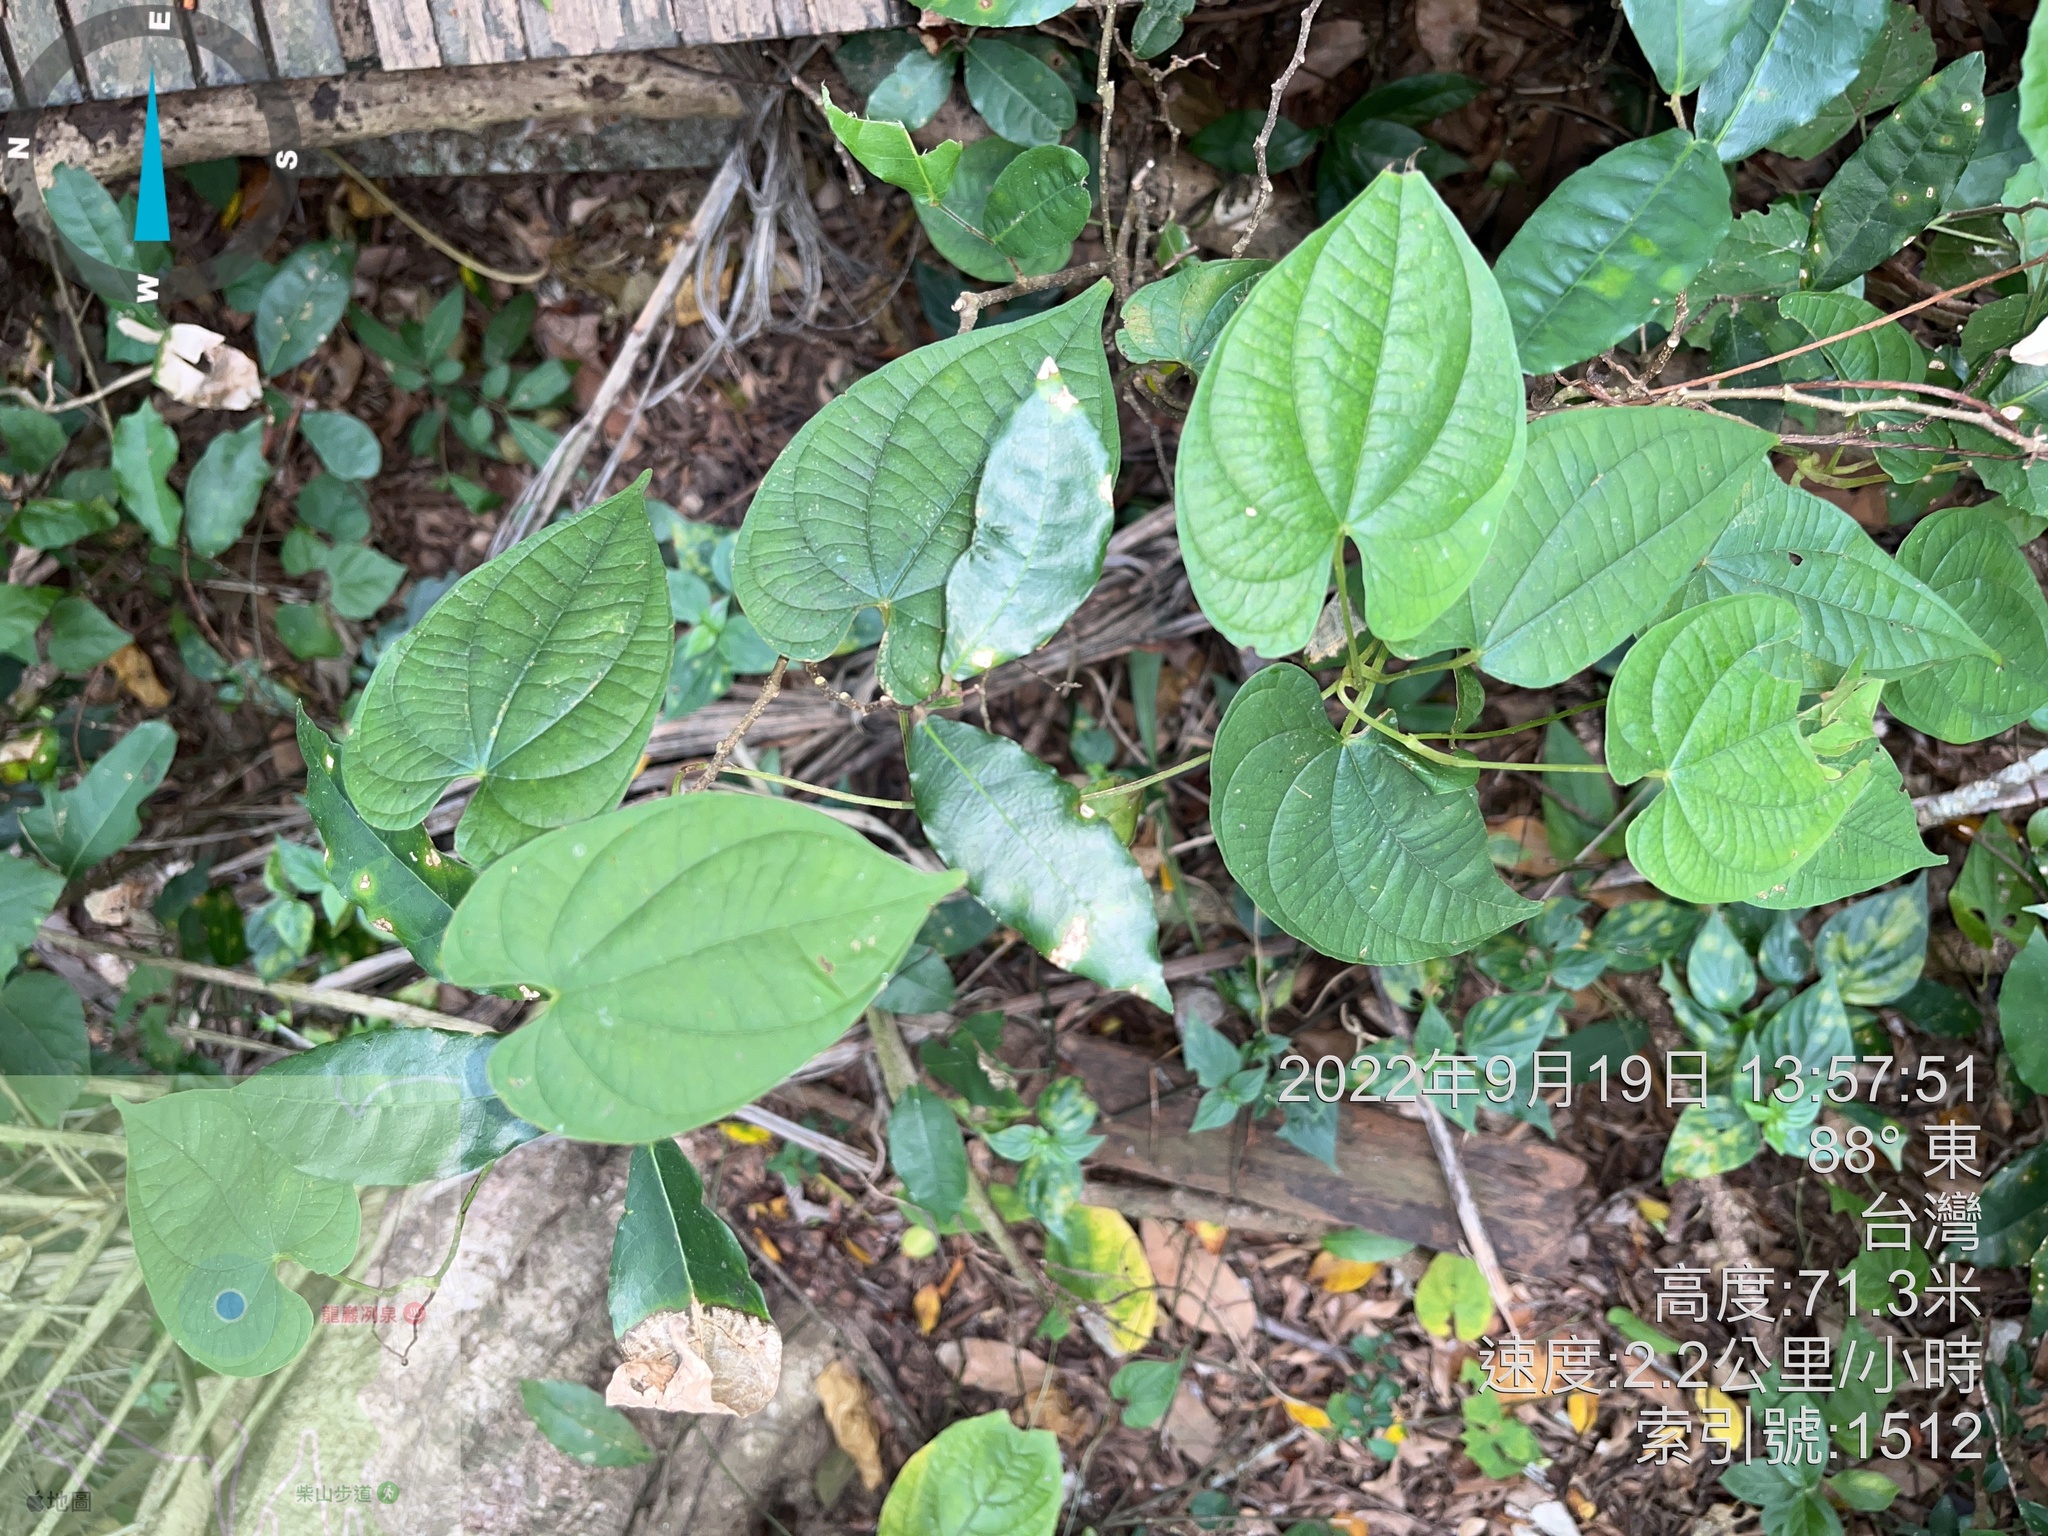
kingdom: Plantae
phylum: Tracheophyta
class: Liliopsida
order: Dioscoreales
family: Dioscoreaceae
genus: Dioscorea
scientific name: Dioscorea bulbifera
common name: Air yam
